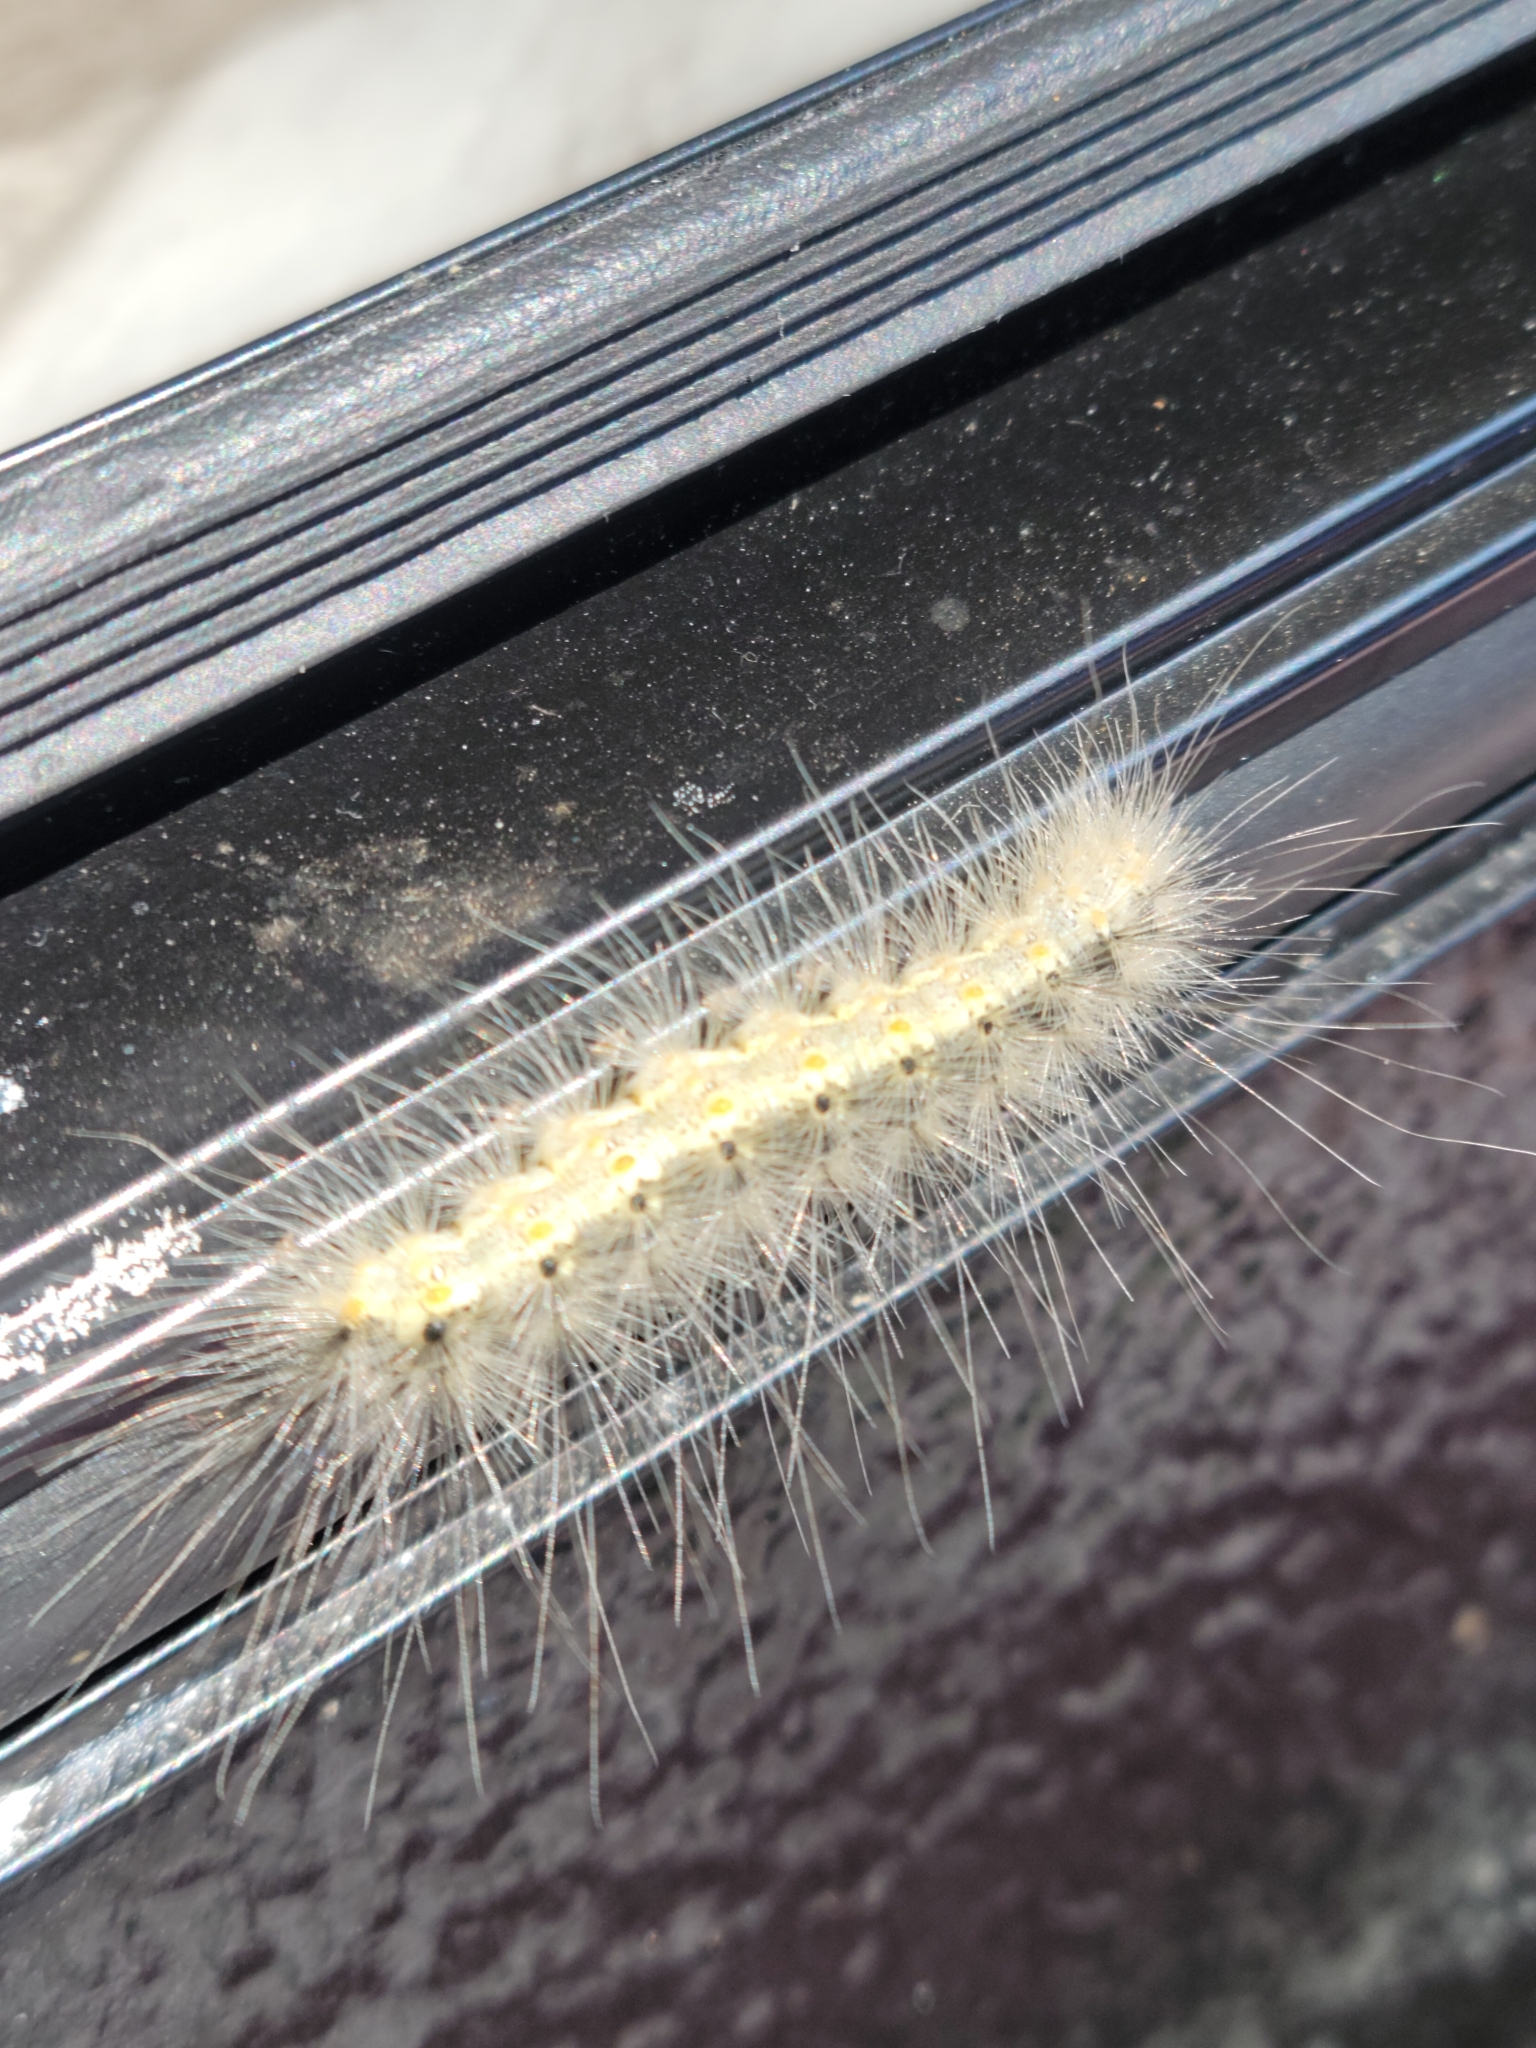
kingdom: Animalia
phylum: Arthropoda
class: Insecta
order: Lepidoptera
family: Erebidae
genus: Hyphantria
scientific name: Hyphantria cunea
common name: American white moth
